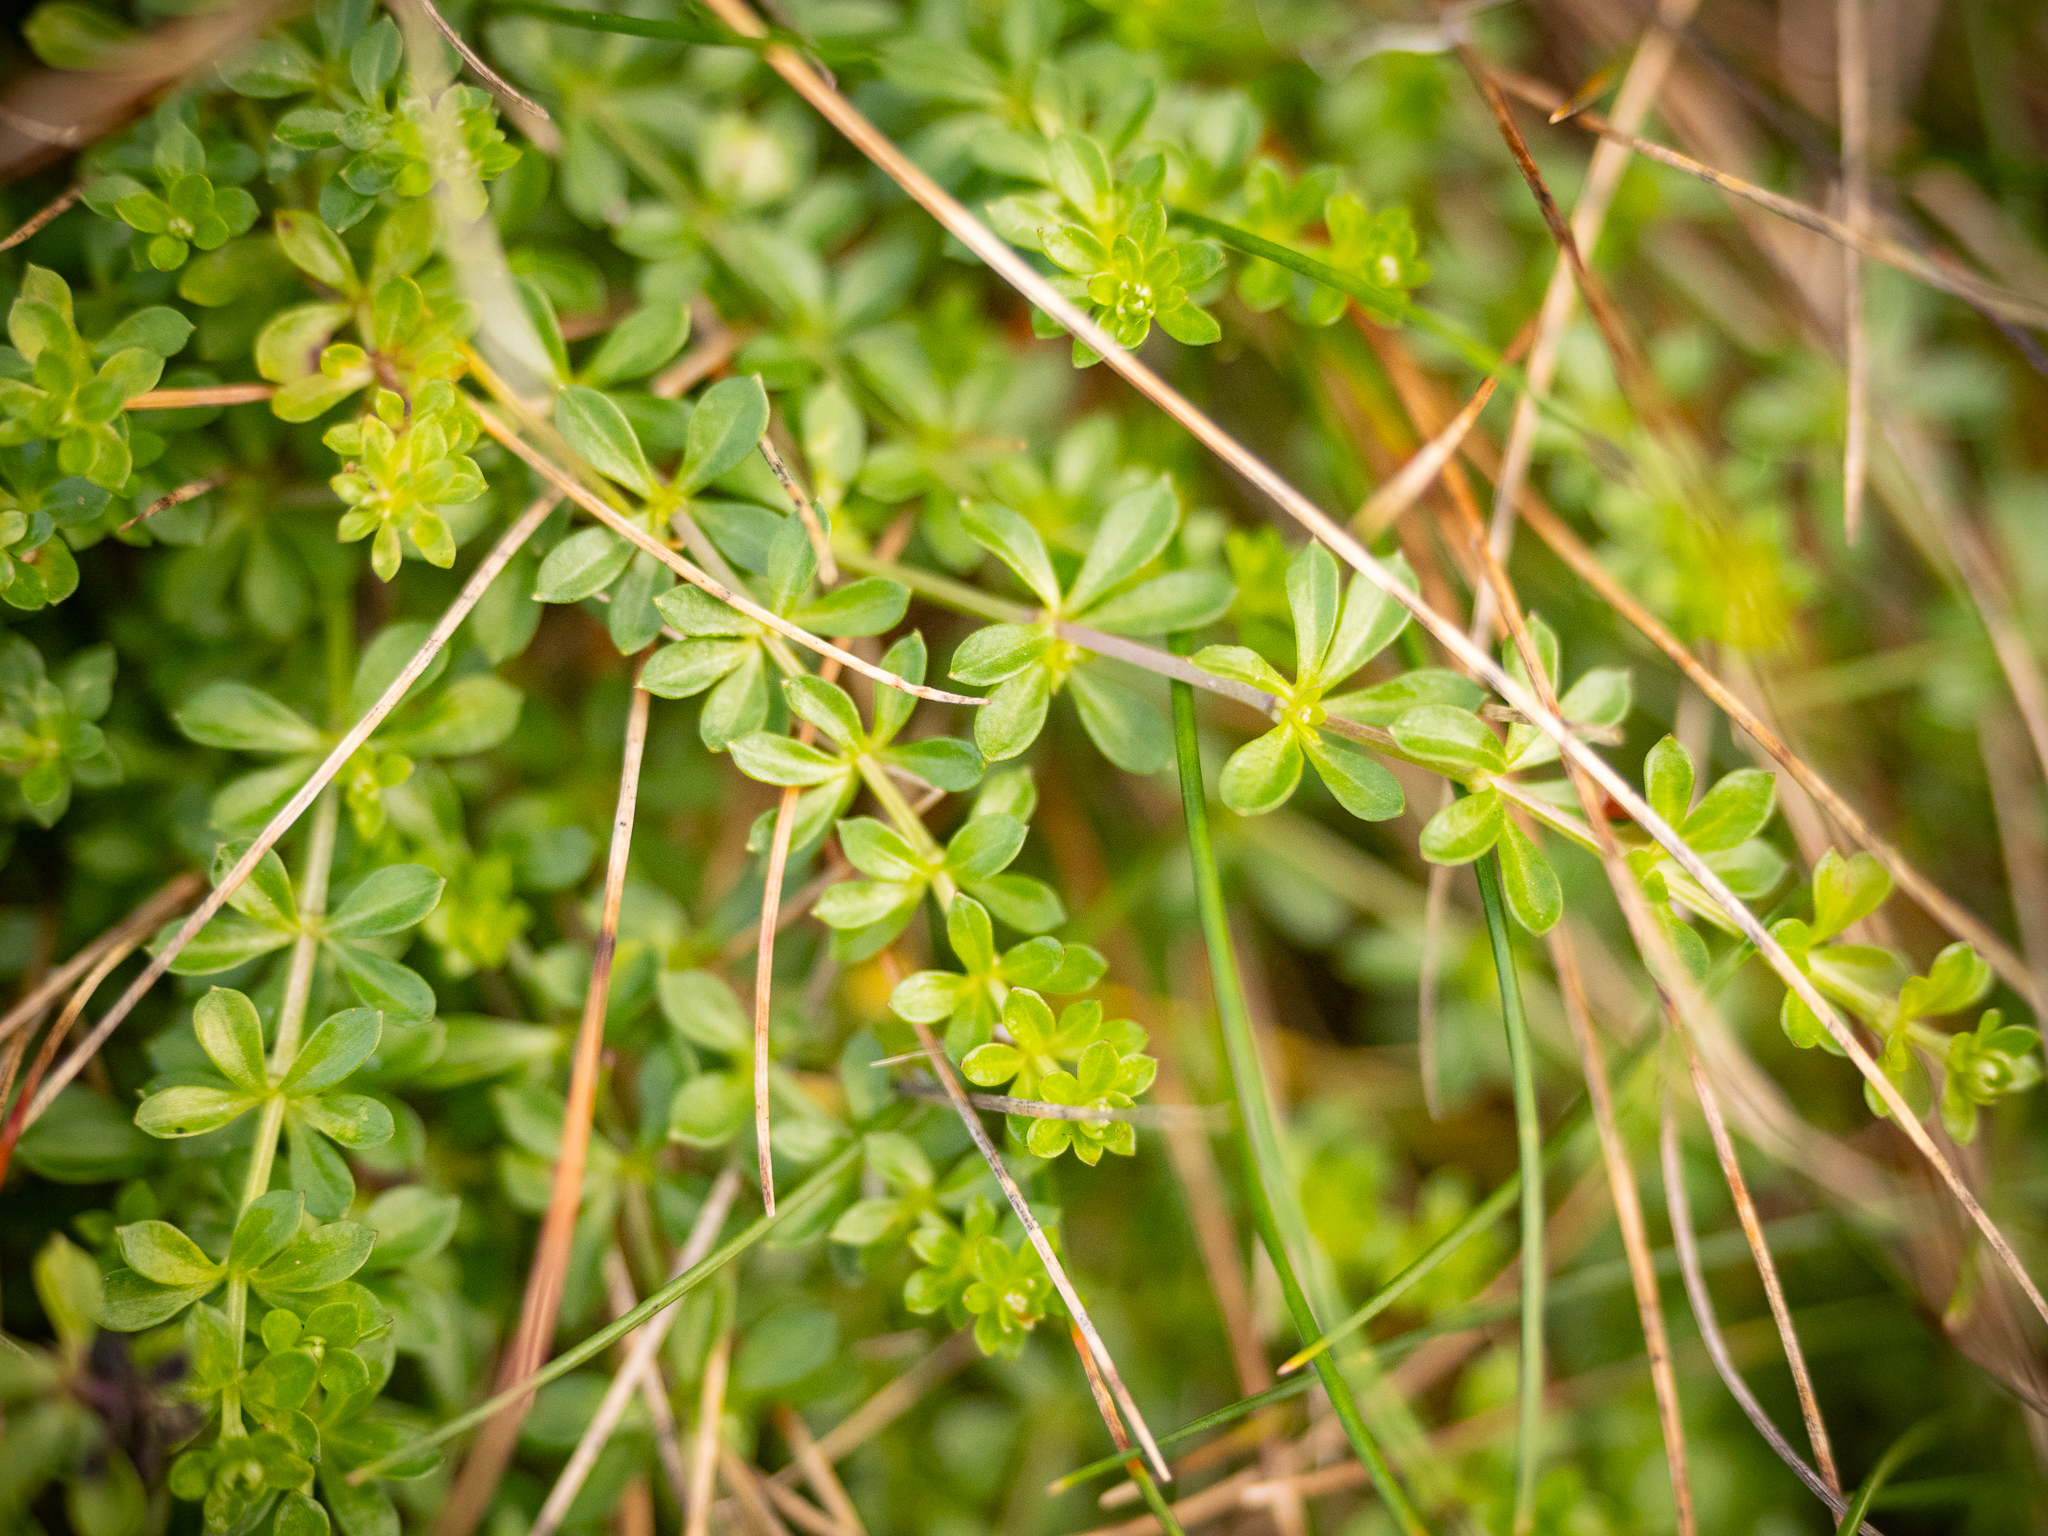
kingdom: Plantae
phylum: Tracheophyta
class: Magnoliopsida
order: Gentianales
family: Rubiaceae
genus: Galium
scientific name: Galium saxatile
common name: Heath bedstraw
